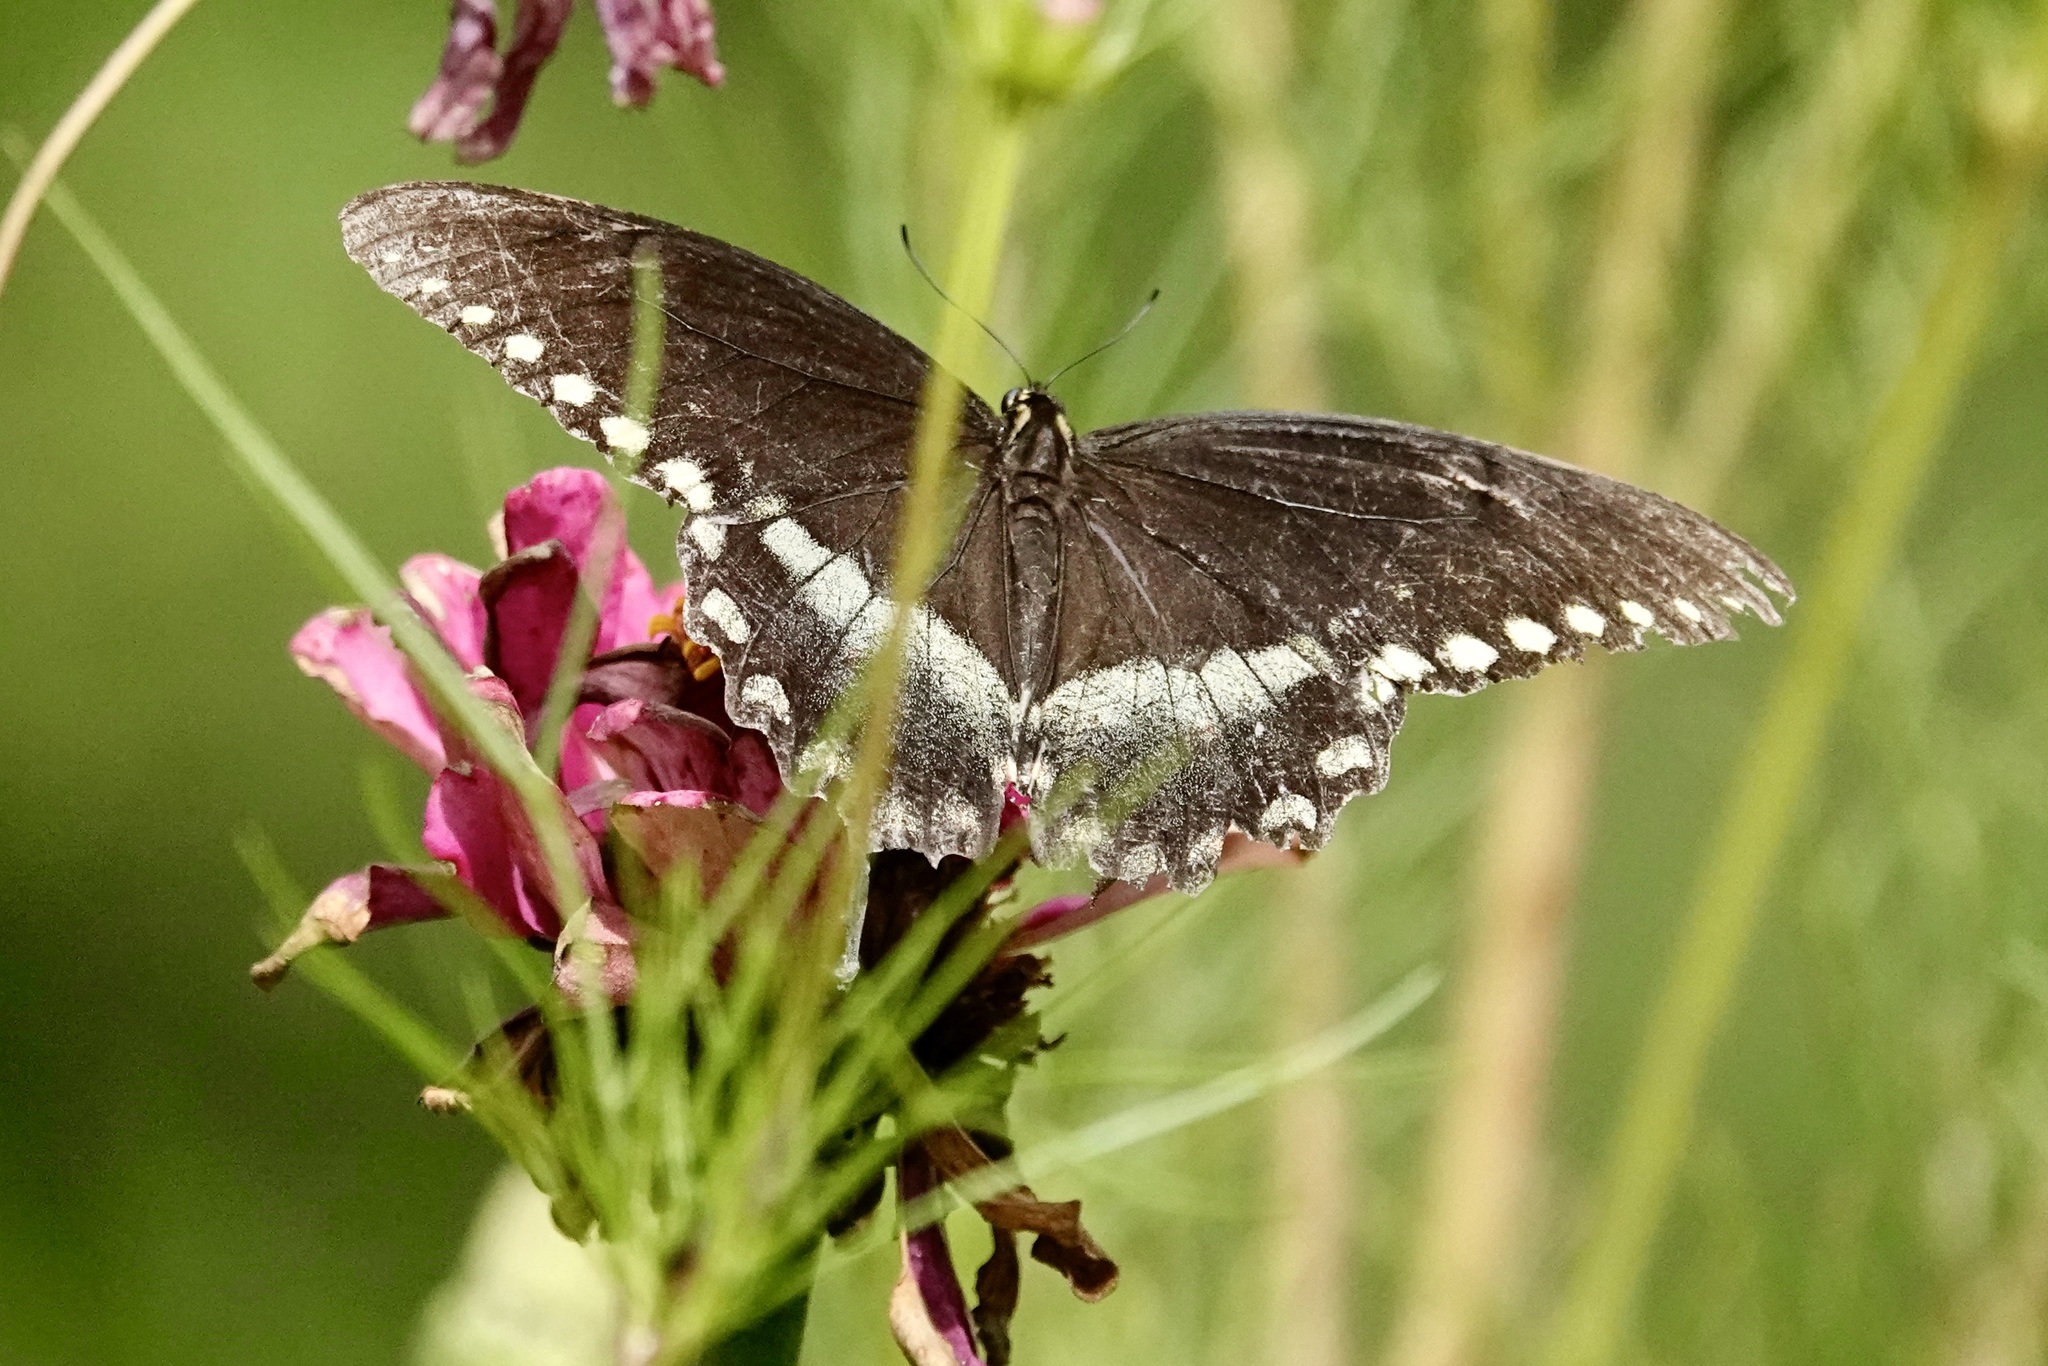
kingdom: Animalia
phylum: Arthropoda
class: Insecta
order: Lepidoptera
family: Papilionidae
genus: Papilio
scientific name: Papilio troilus
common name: Spicebush swallowtail
